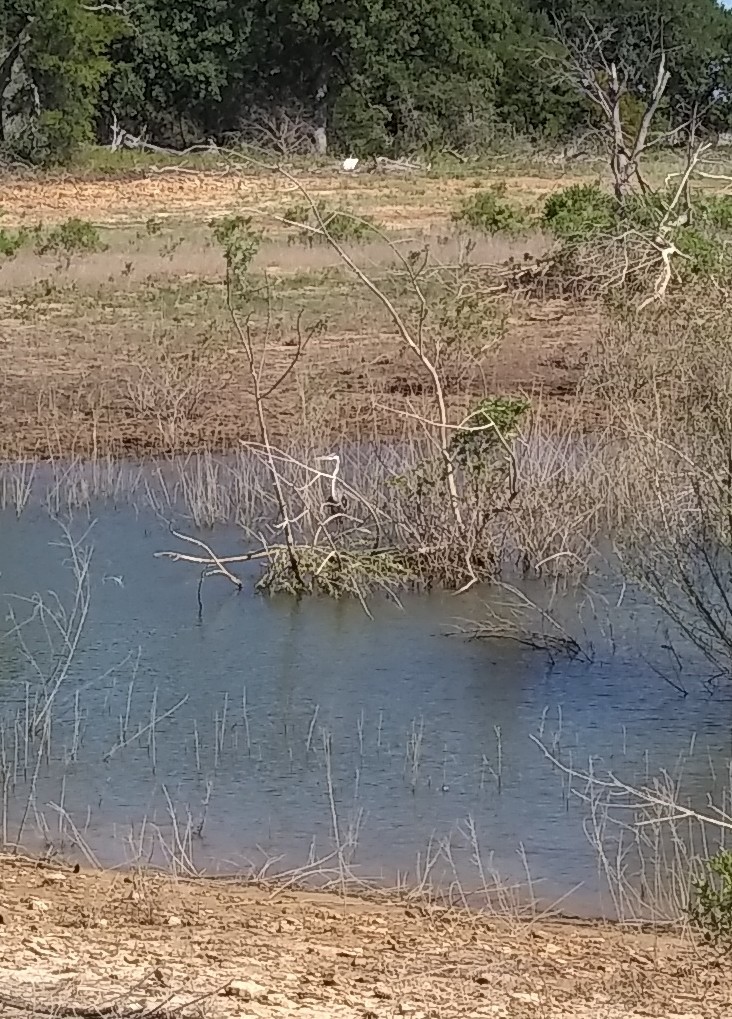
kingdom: Animalia
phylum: Chordata
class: Aves
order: Pelecaniformes
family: Ardeidae
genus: Ardea
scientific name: Ardea herodias
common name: Great blue heron
